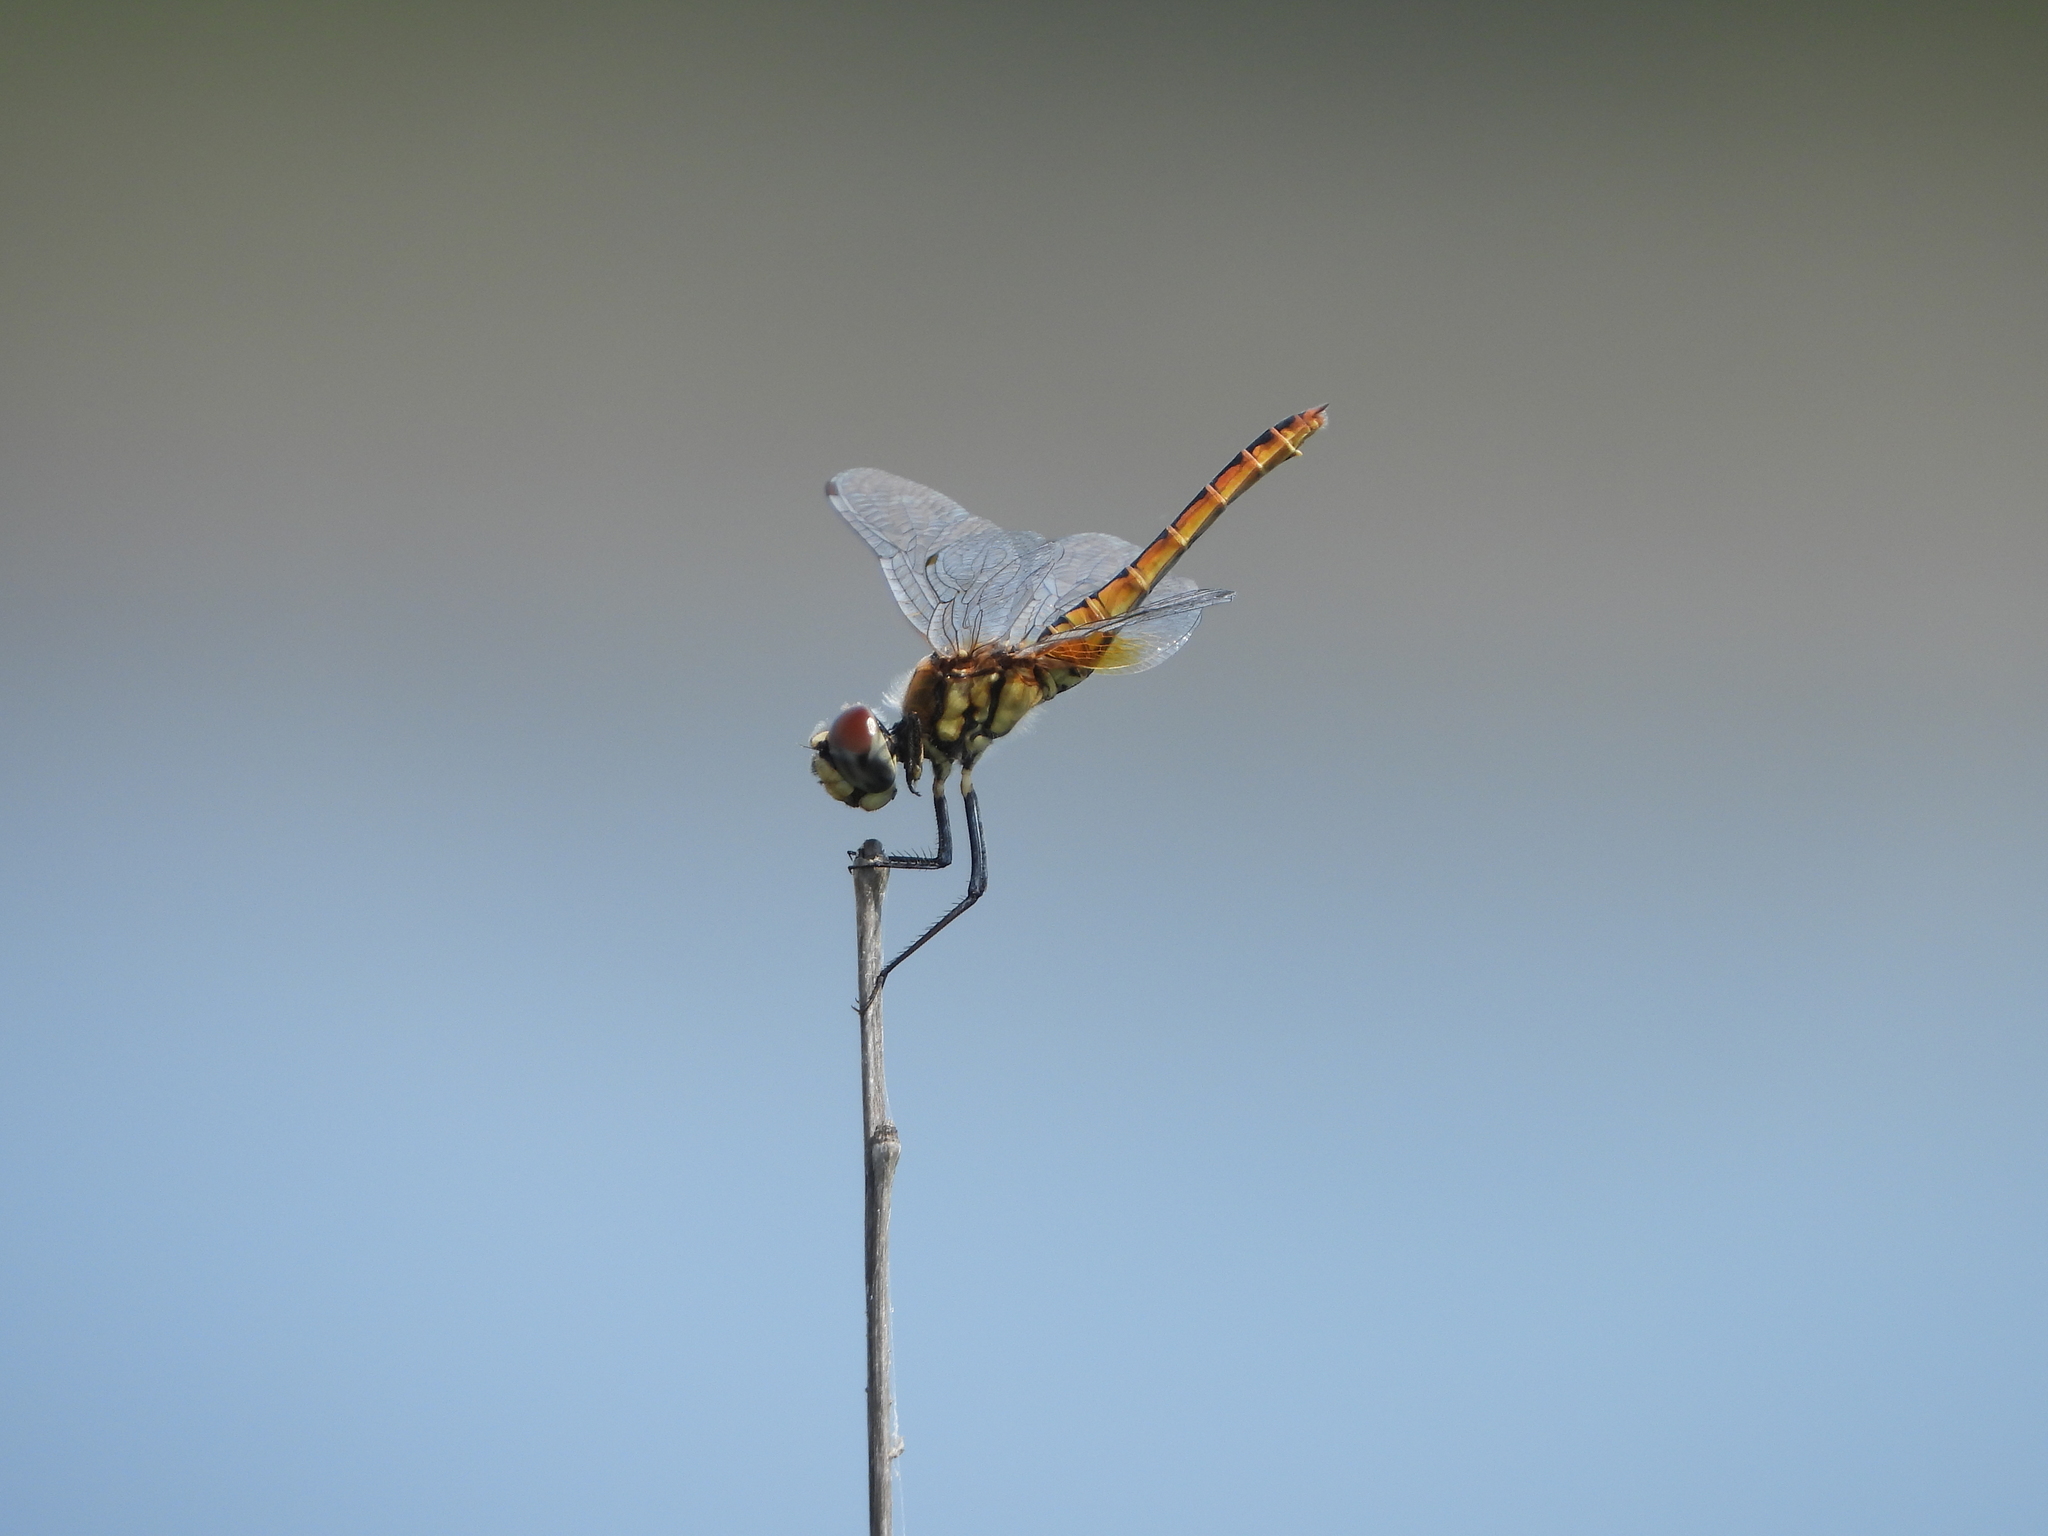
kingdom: Animalia
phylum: Arthropoda
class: Insecta
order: Odonata
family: Libellulidae
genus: Macrodiplax
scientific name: Macrodiplax cora
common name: Coastal glider
